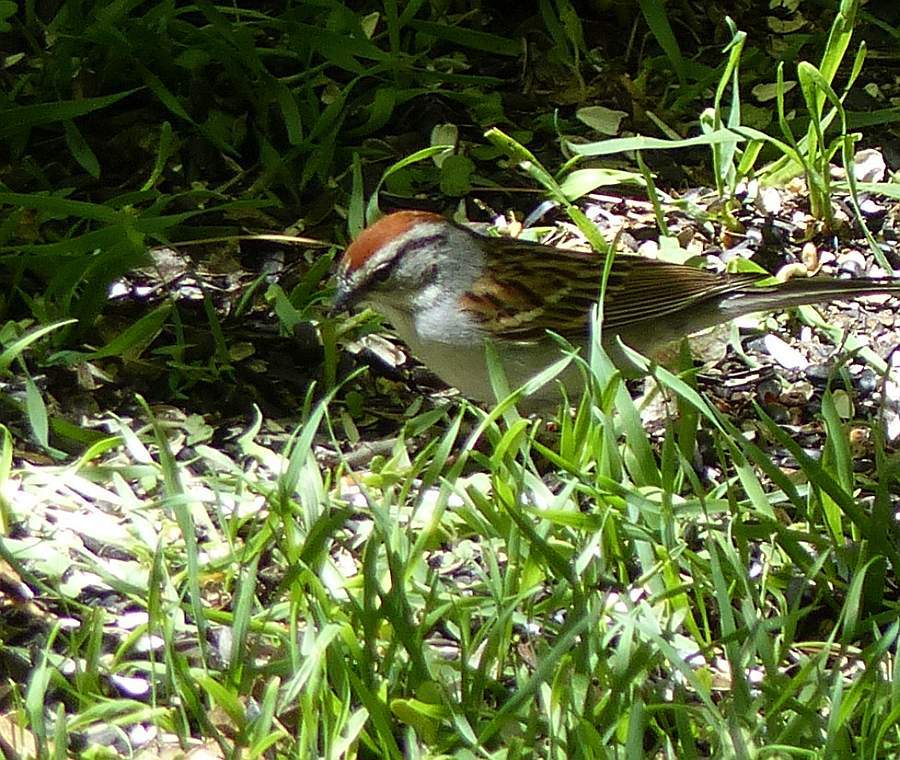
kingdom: Animalia
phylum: Chordata
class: Aves
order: Passeriformes
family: Passerellidae
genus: Spizella
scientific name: Spizella passerina
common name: Chipping sparrow
